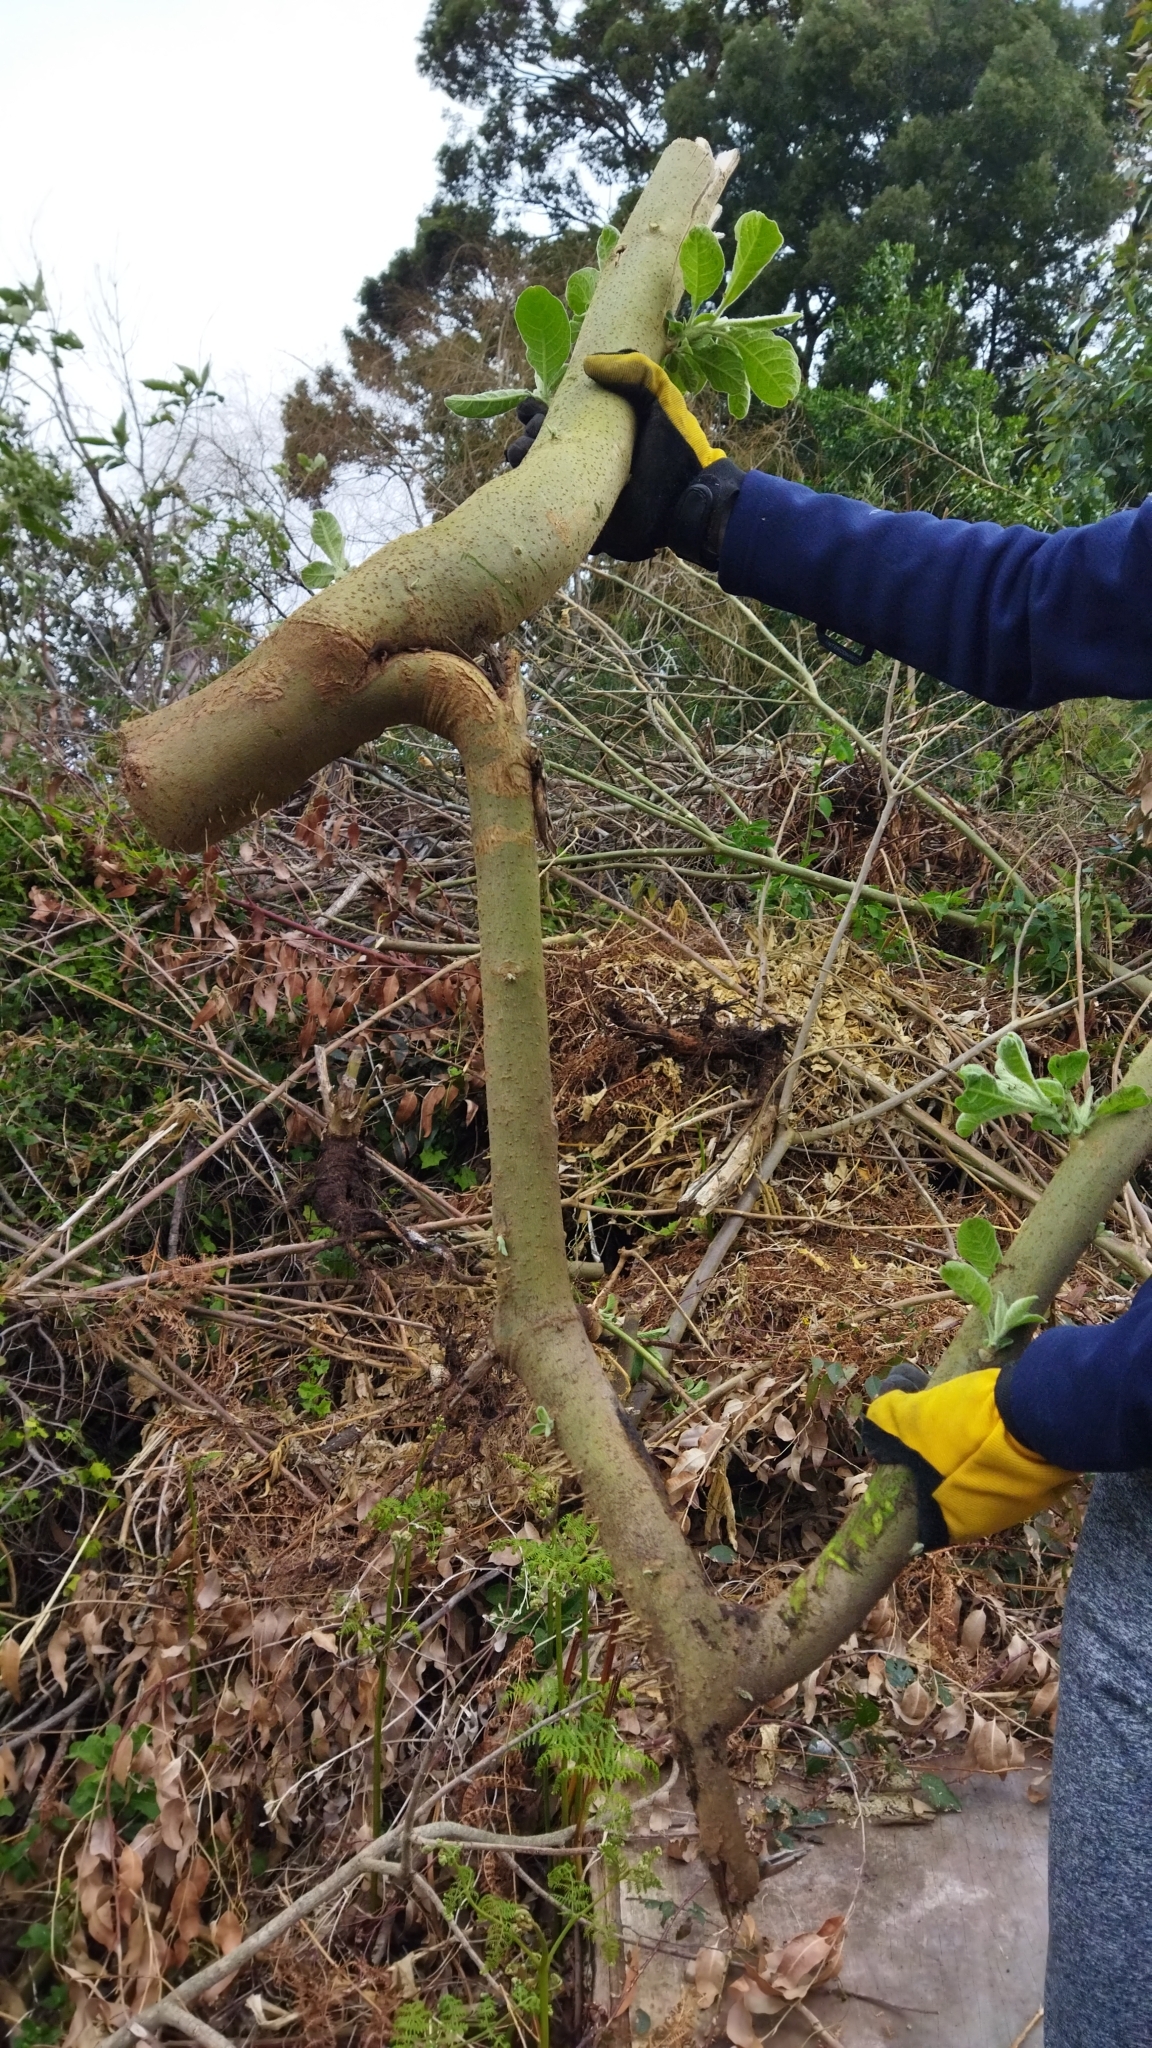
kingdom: Plantae
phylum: Tracheophyta
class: Magnoliopsida
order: Solanales
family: Solanaceae
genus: Solanum
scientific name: Solanum mauritianum
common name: Earleaf nightshade
